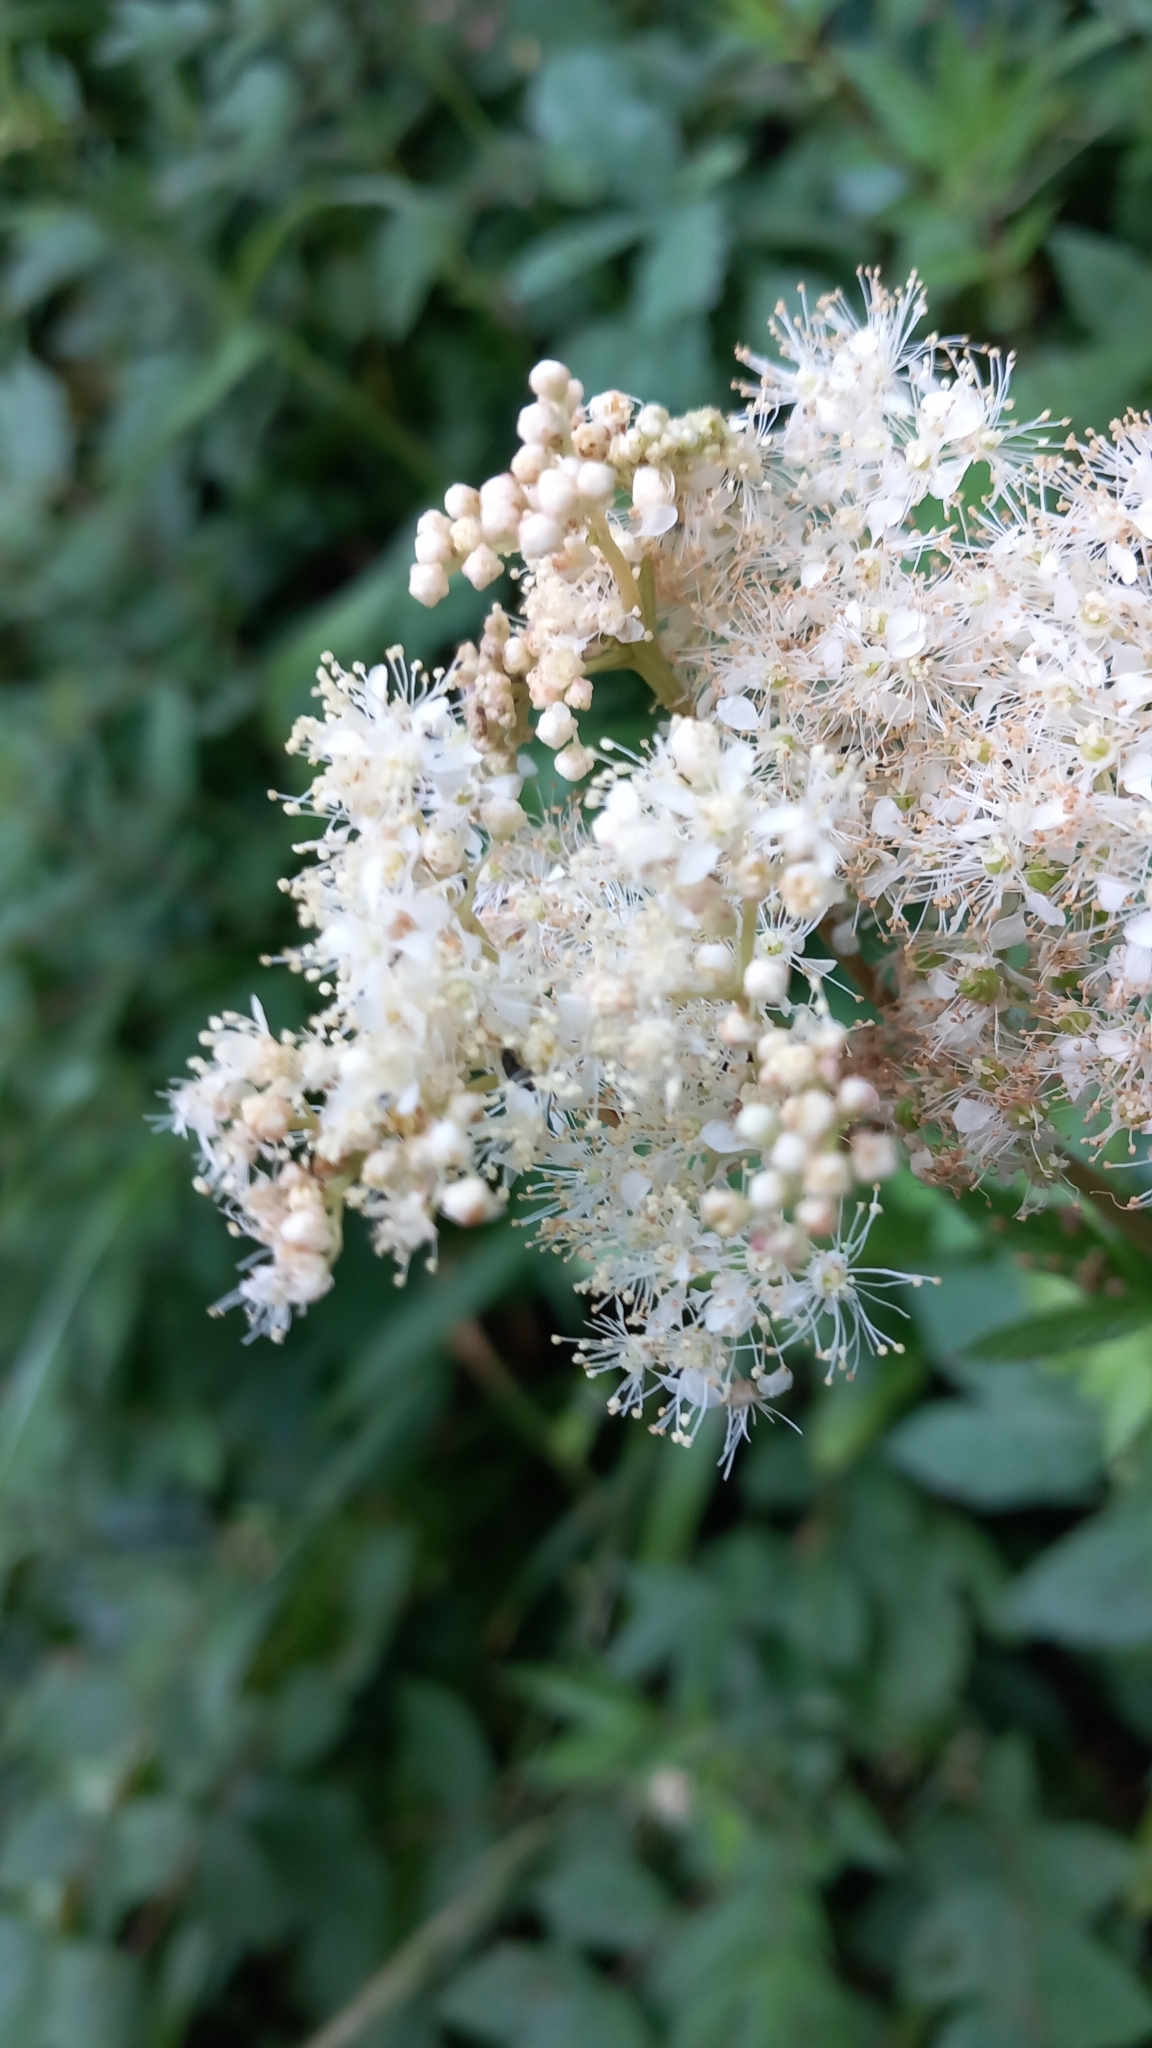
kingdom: Plantae
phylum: Tracheophyta
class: Magnoliopsida
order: Rosales
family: Rosaceae
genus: Filipendula
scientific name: Filipendula ulmaria
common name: Meadowsweet
